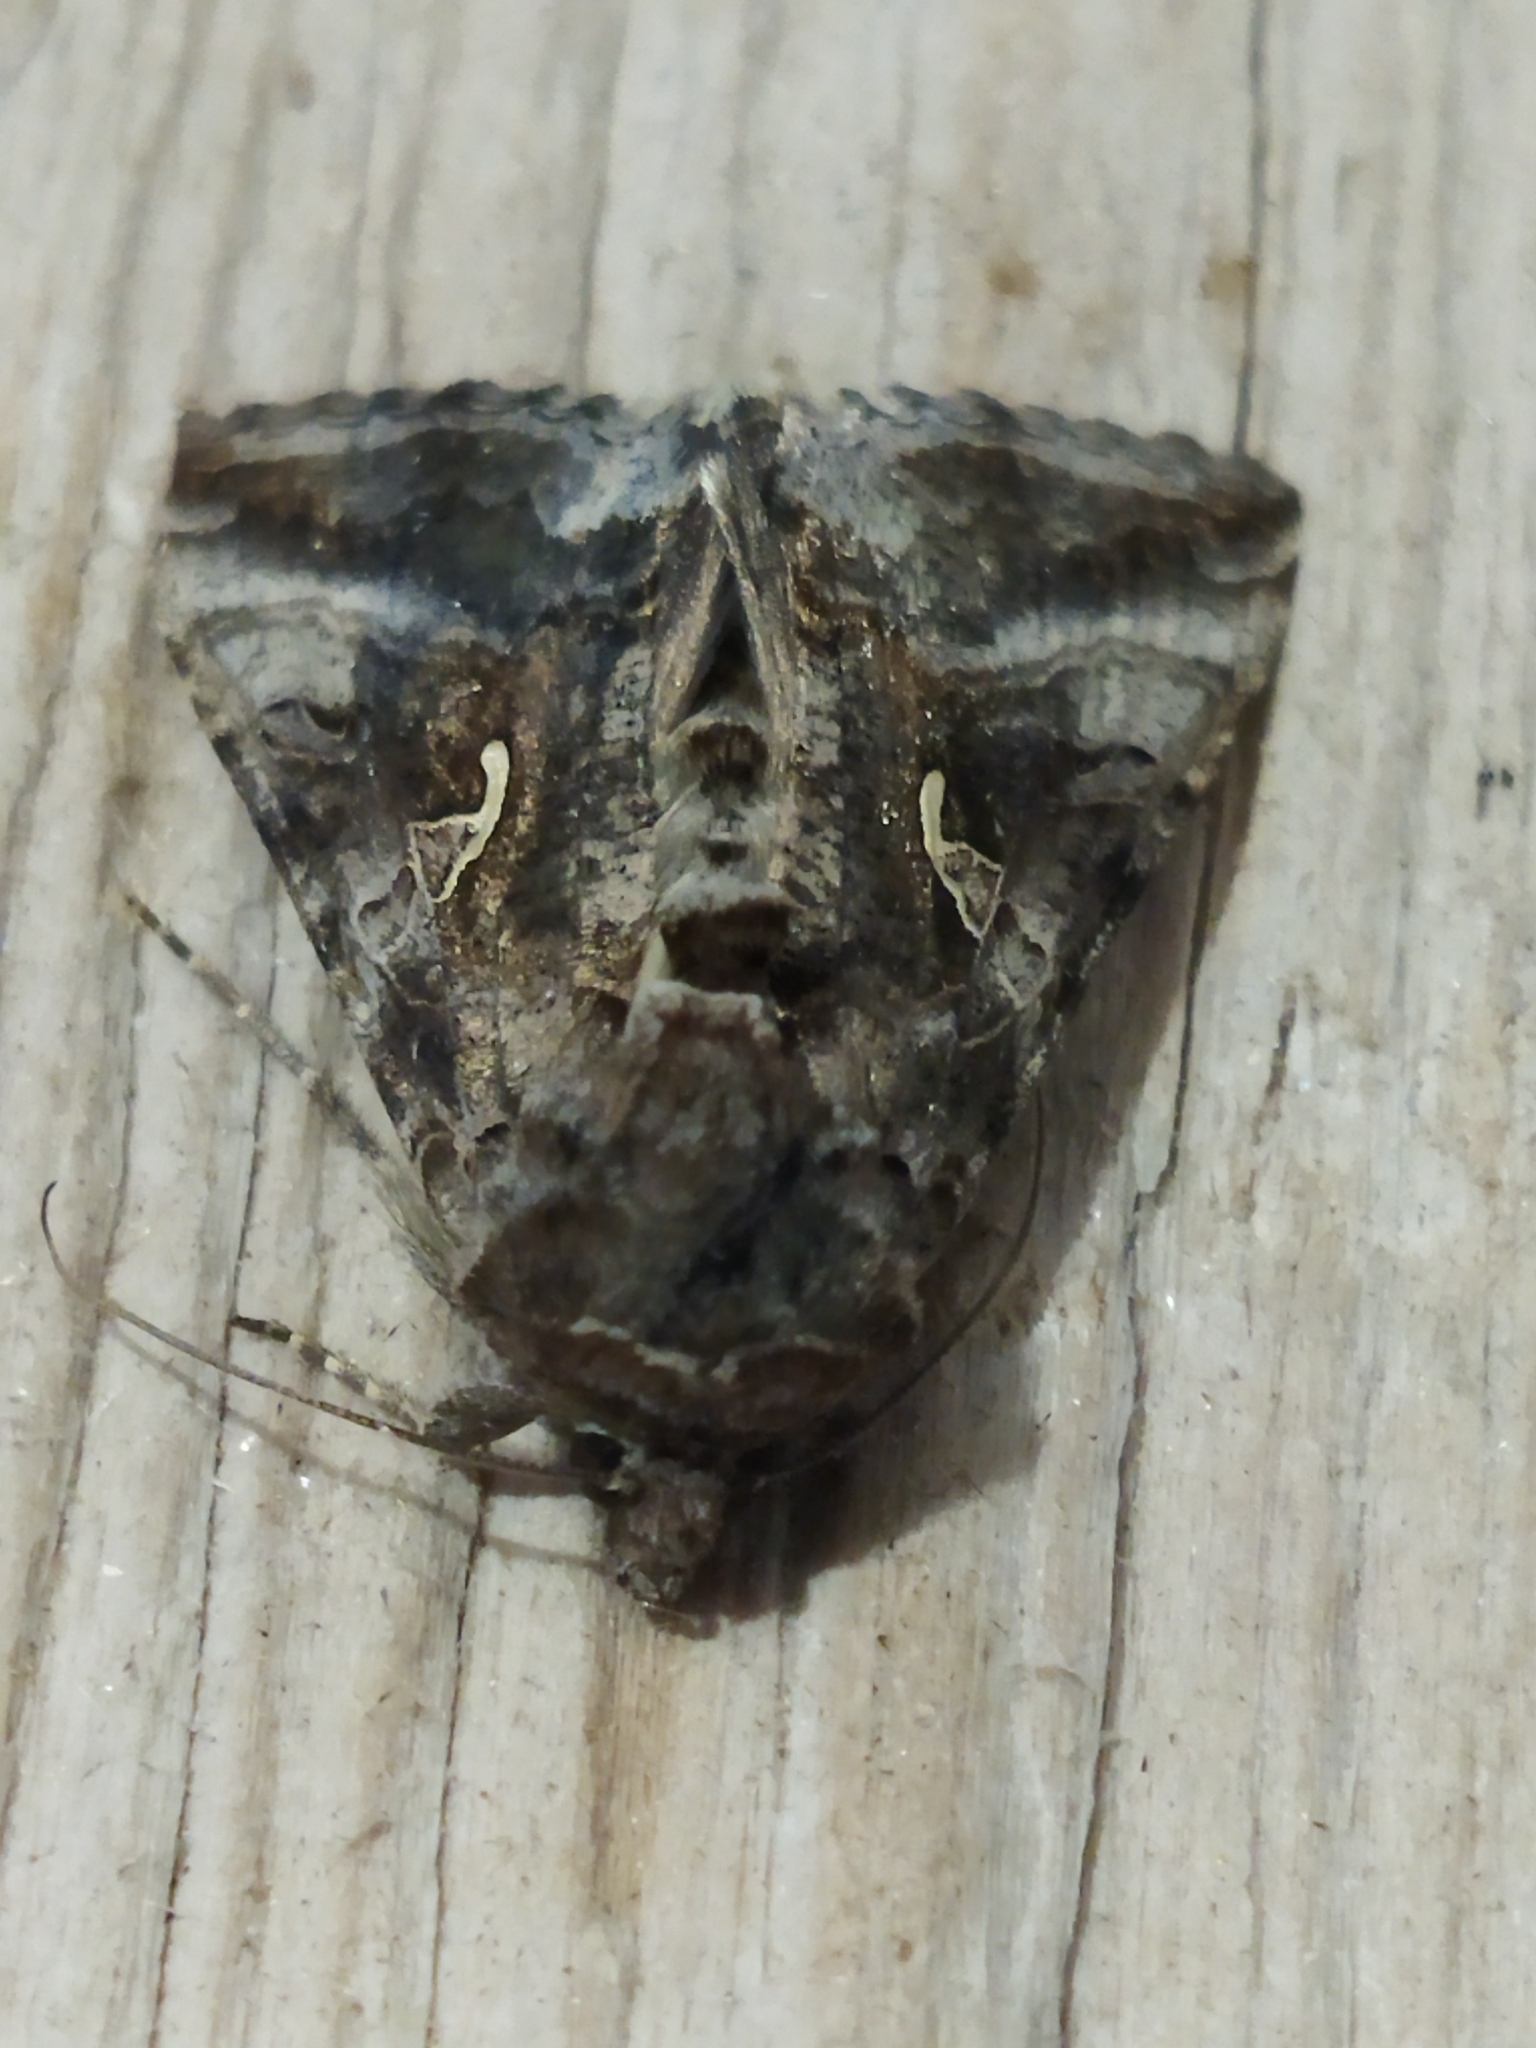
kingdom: Animalia
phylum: Arthropoda
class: Insecta
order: Lepidoptera
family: Noctuidae
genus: Autographa
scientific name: Autographa gamma
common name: Silver y
